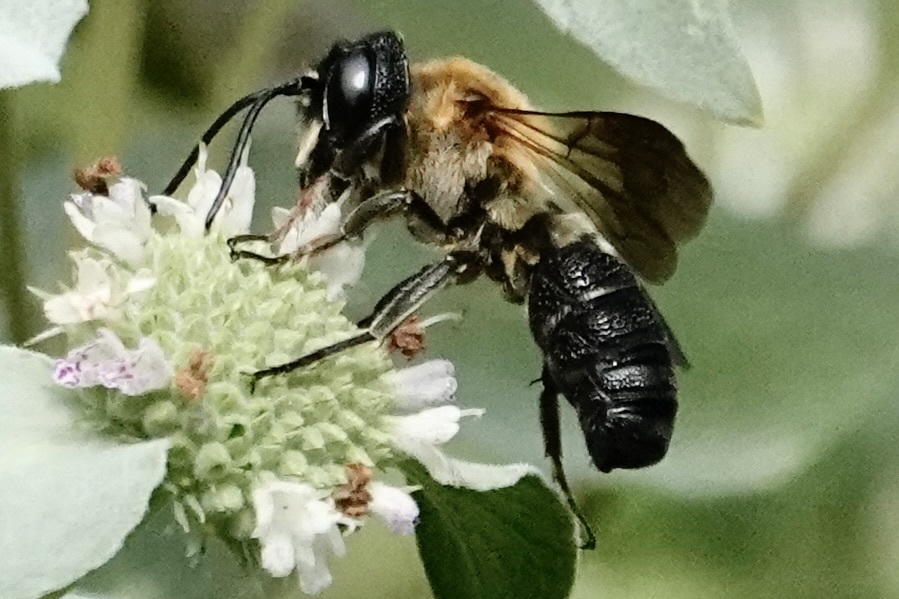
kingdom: Animalia
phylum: Arthropoda
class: Insecta
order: Hymenoptera
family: Megachilidae
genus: Megachile
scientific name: Megachile sculpturalis
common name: Sculptured resin bee
